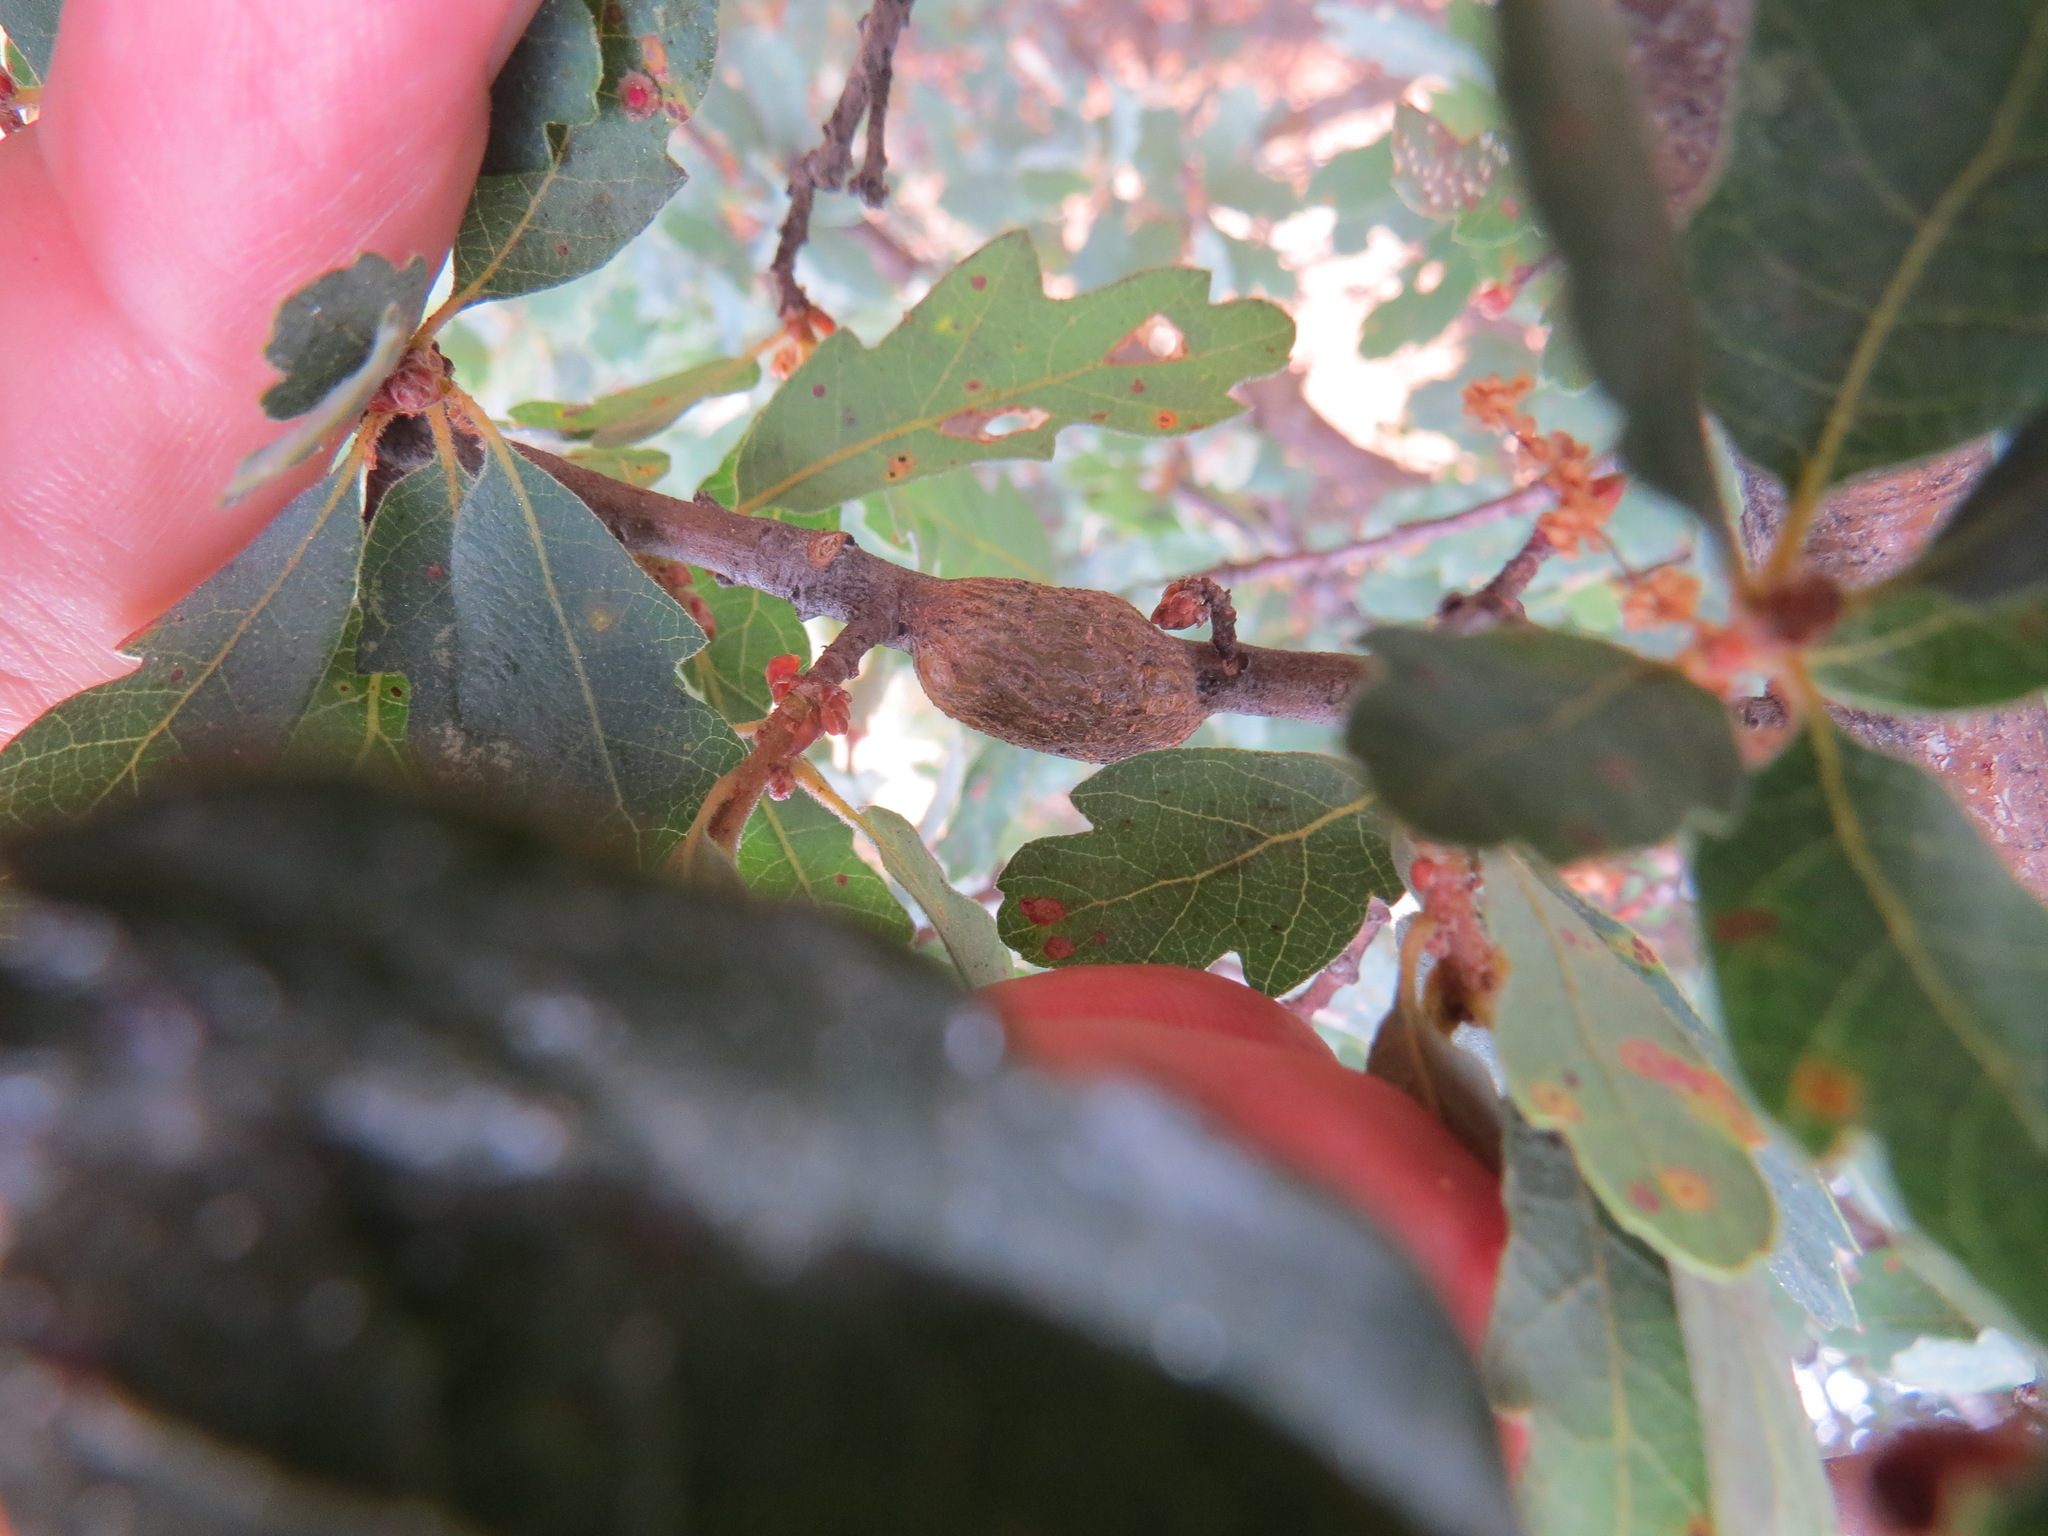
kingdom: Animalia
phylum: Arthropoda
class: Insecta
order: Hymenoptera
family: Cynipidae
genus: Andricus
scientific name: Andricus
